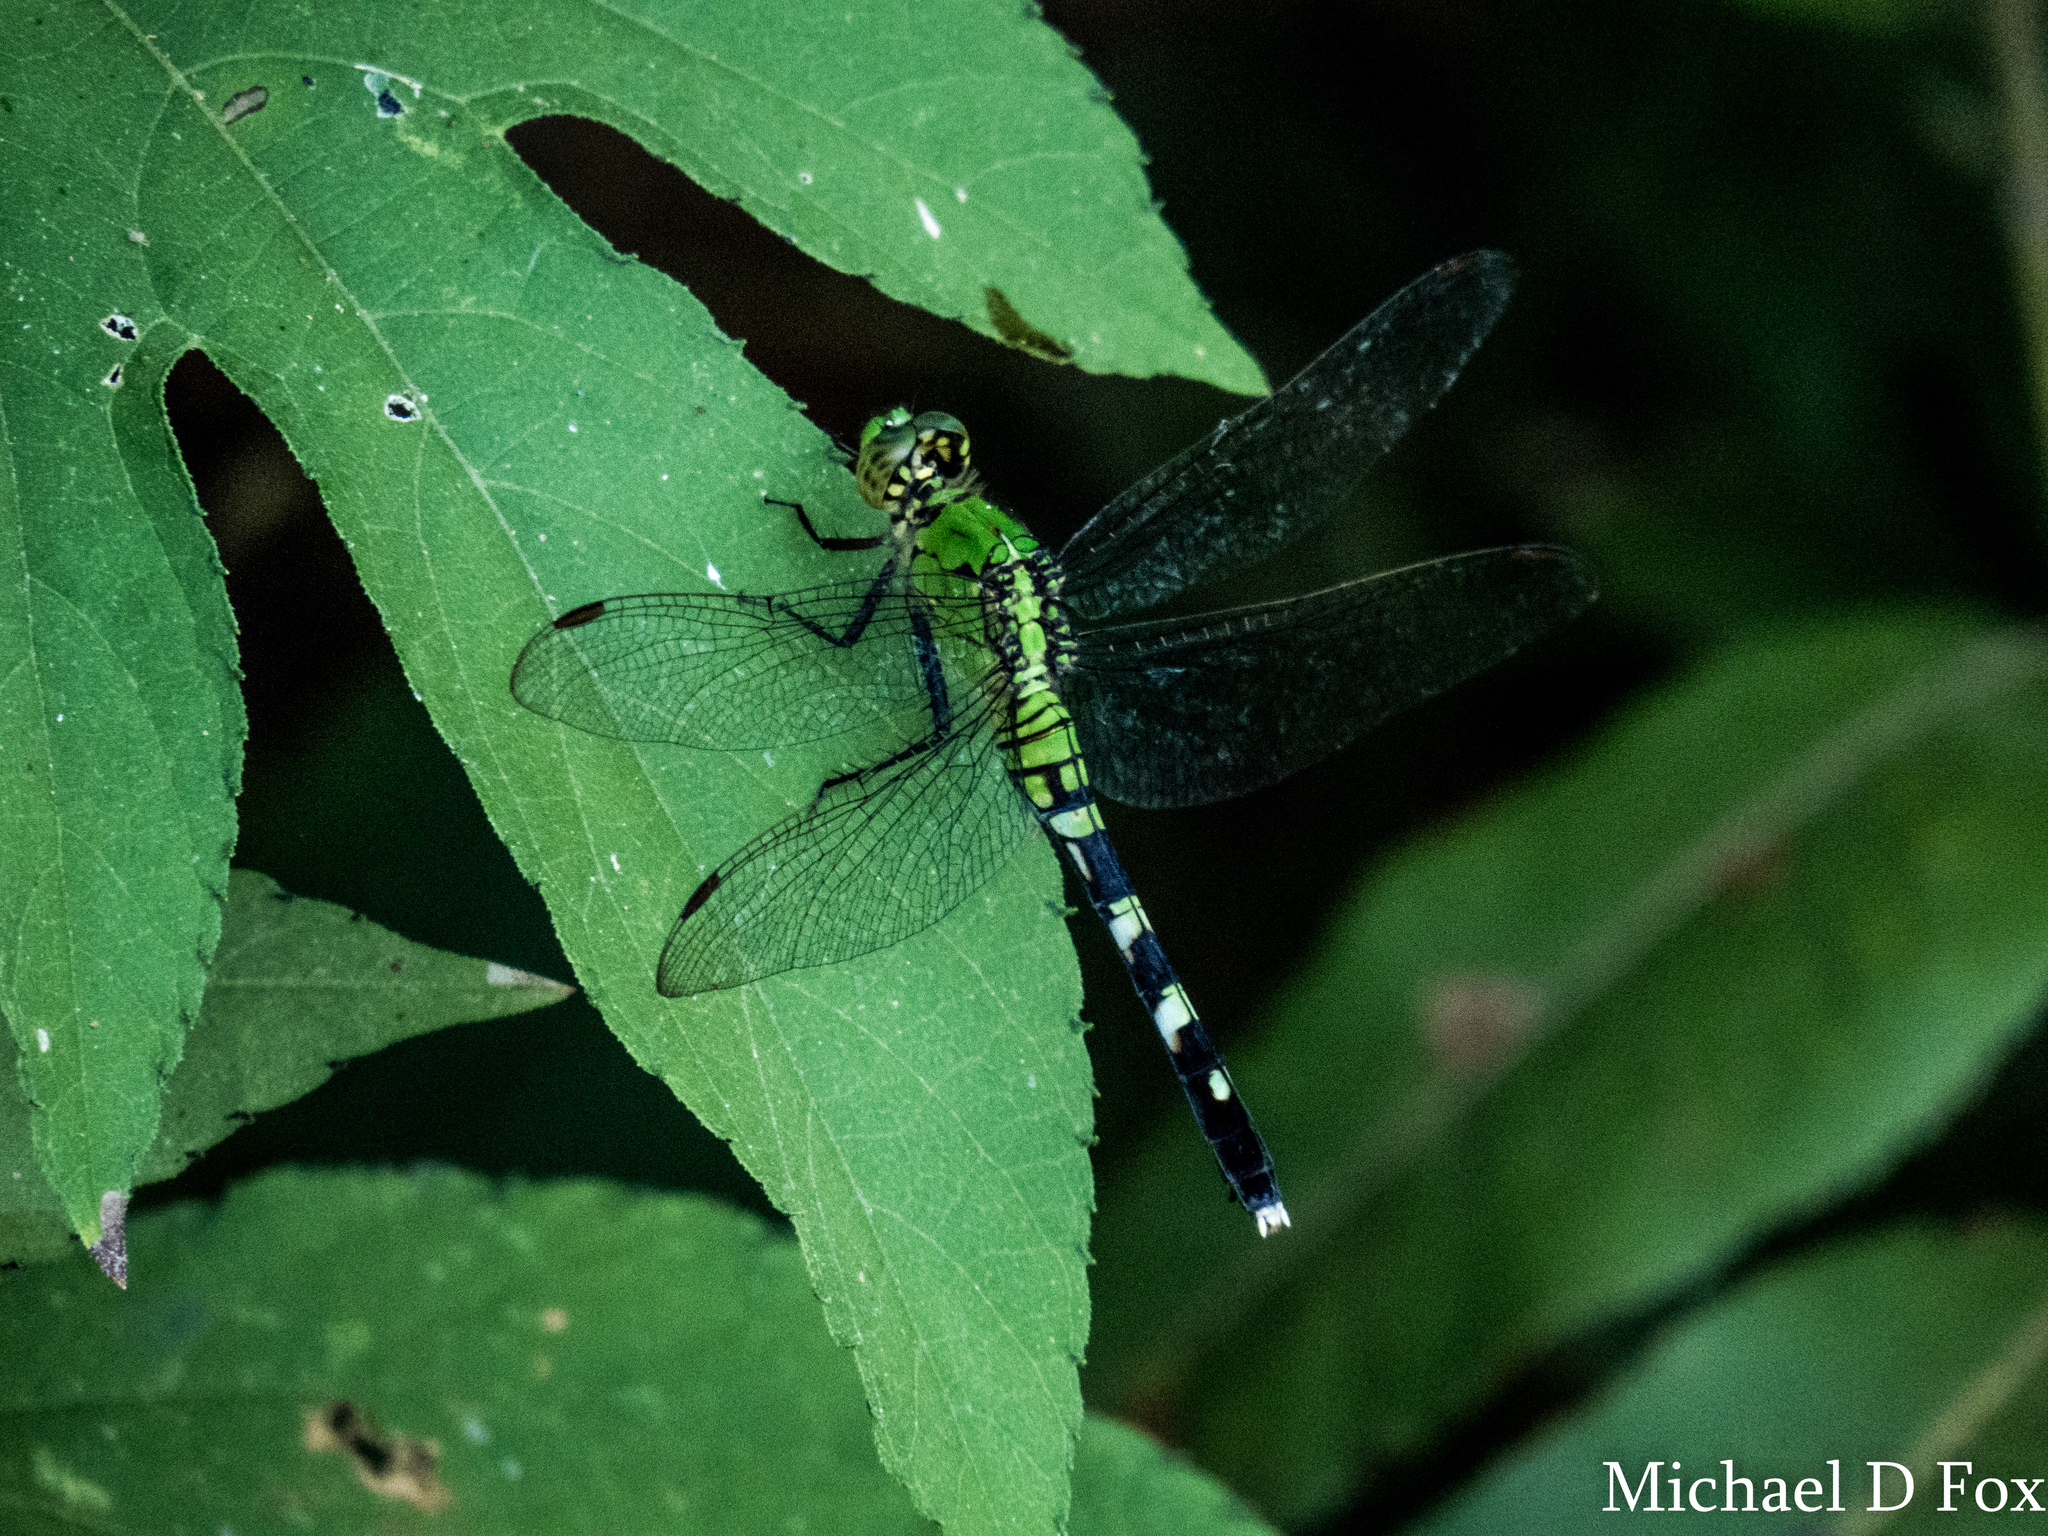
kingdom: Animalia
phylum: Arthropoda
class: Insecta
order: Odonata
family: Libellulidae
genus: Erythemis
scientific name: Erythemis simplicicollis
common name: Eastern pondhawk
